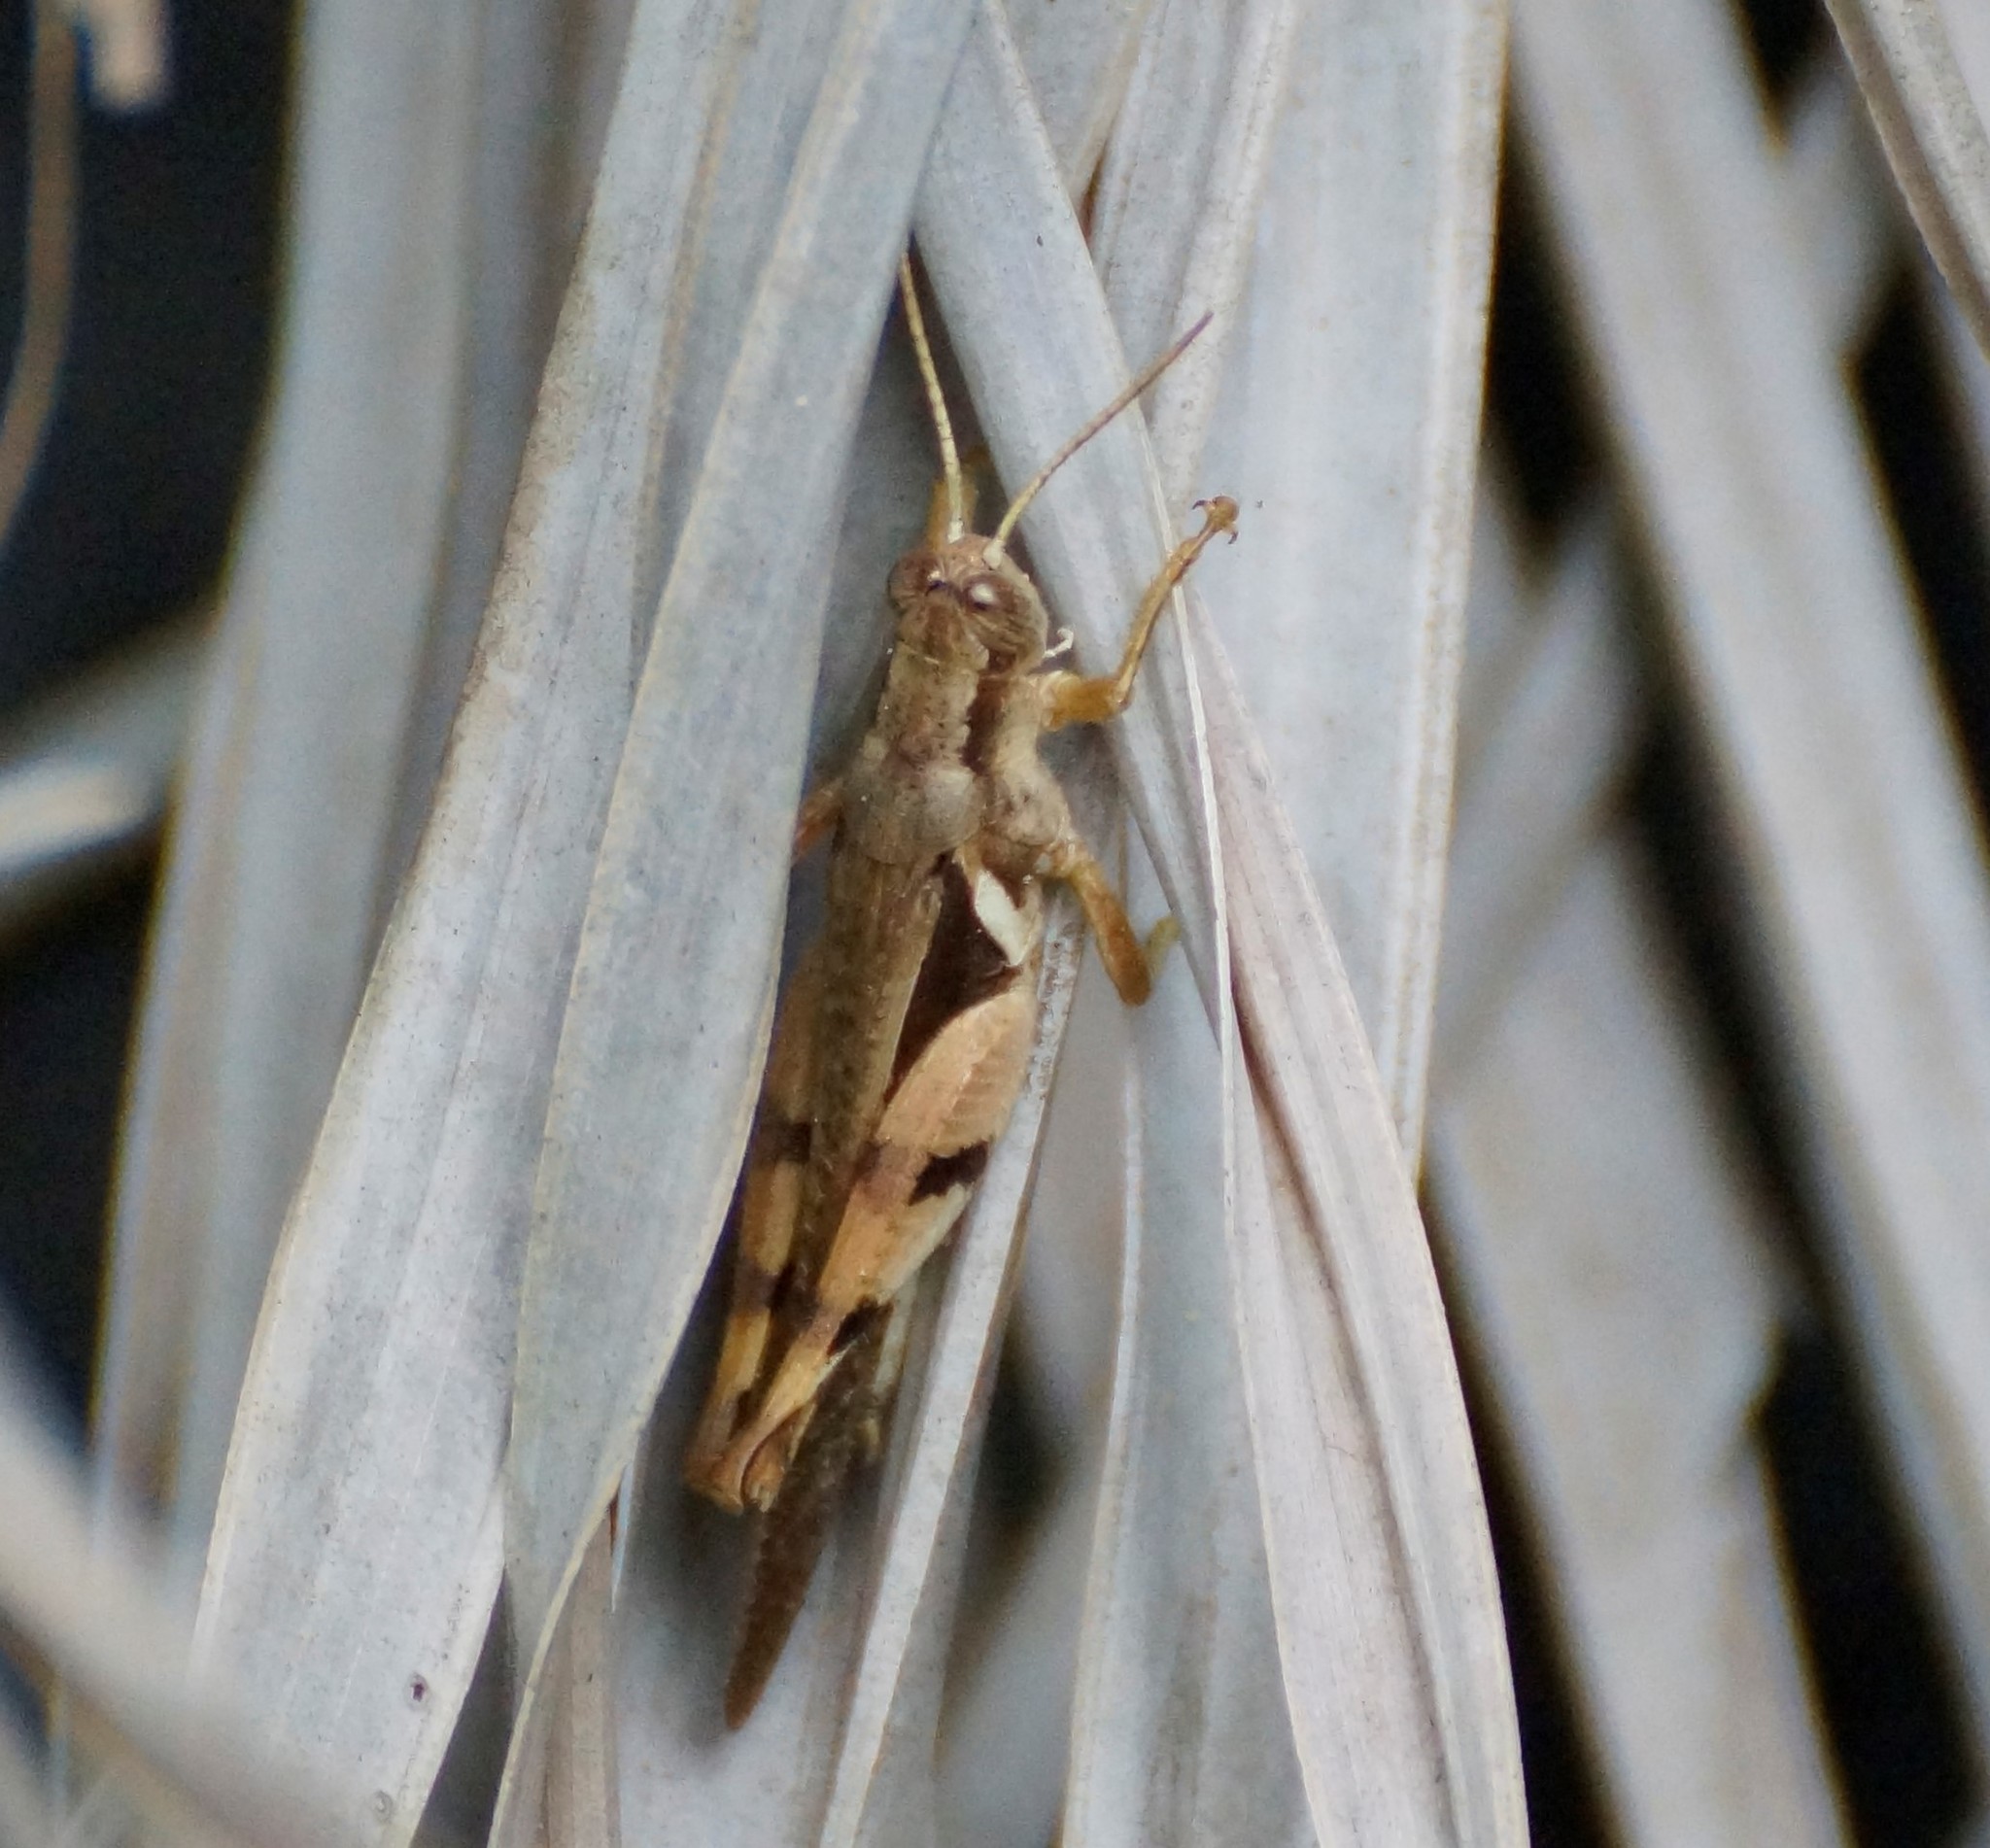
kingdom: Animalia
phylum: Arthropoda
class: Insecta
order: Orthoptera
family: Acrididae
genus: Stenocatantops
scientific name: Stenocatantops angustifrons
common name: Common tropical sharptail
